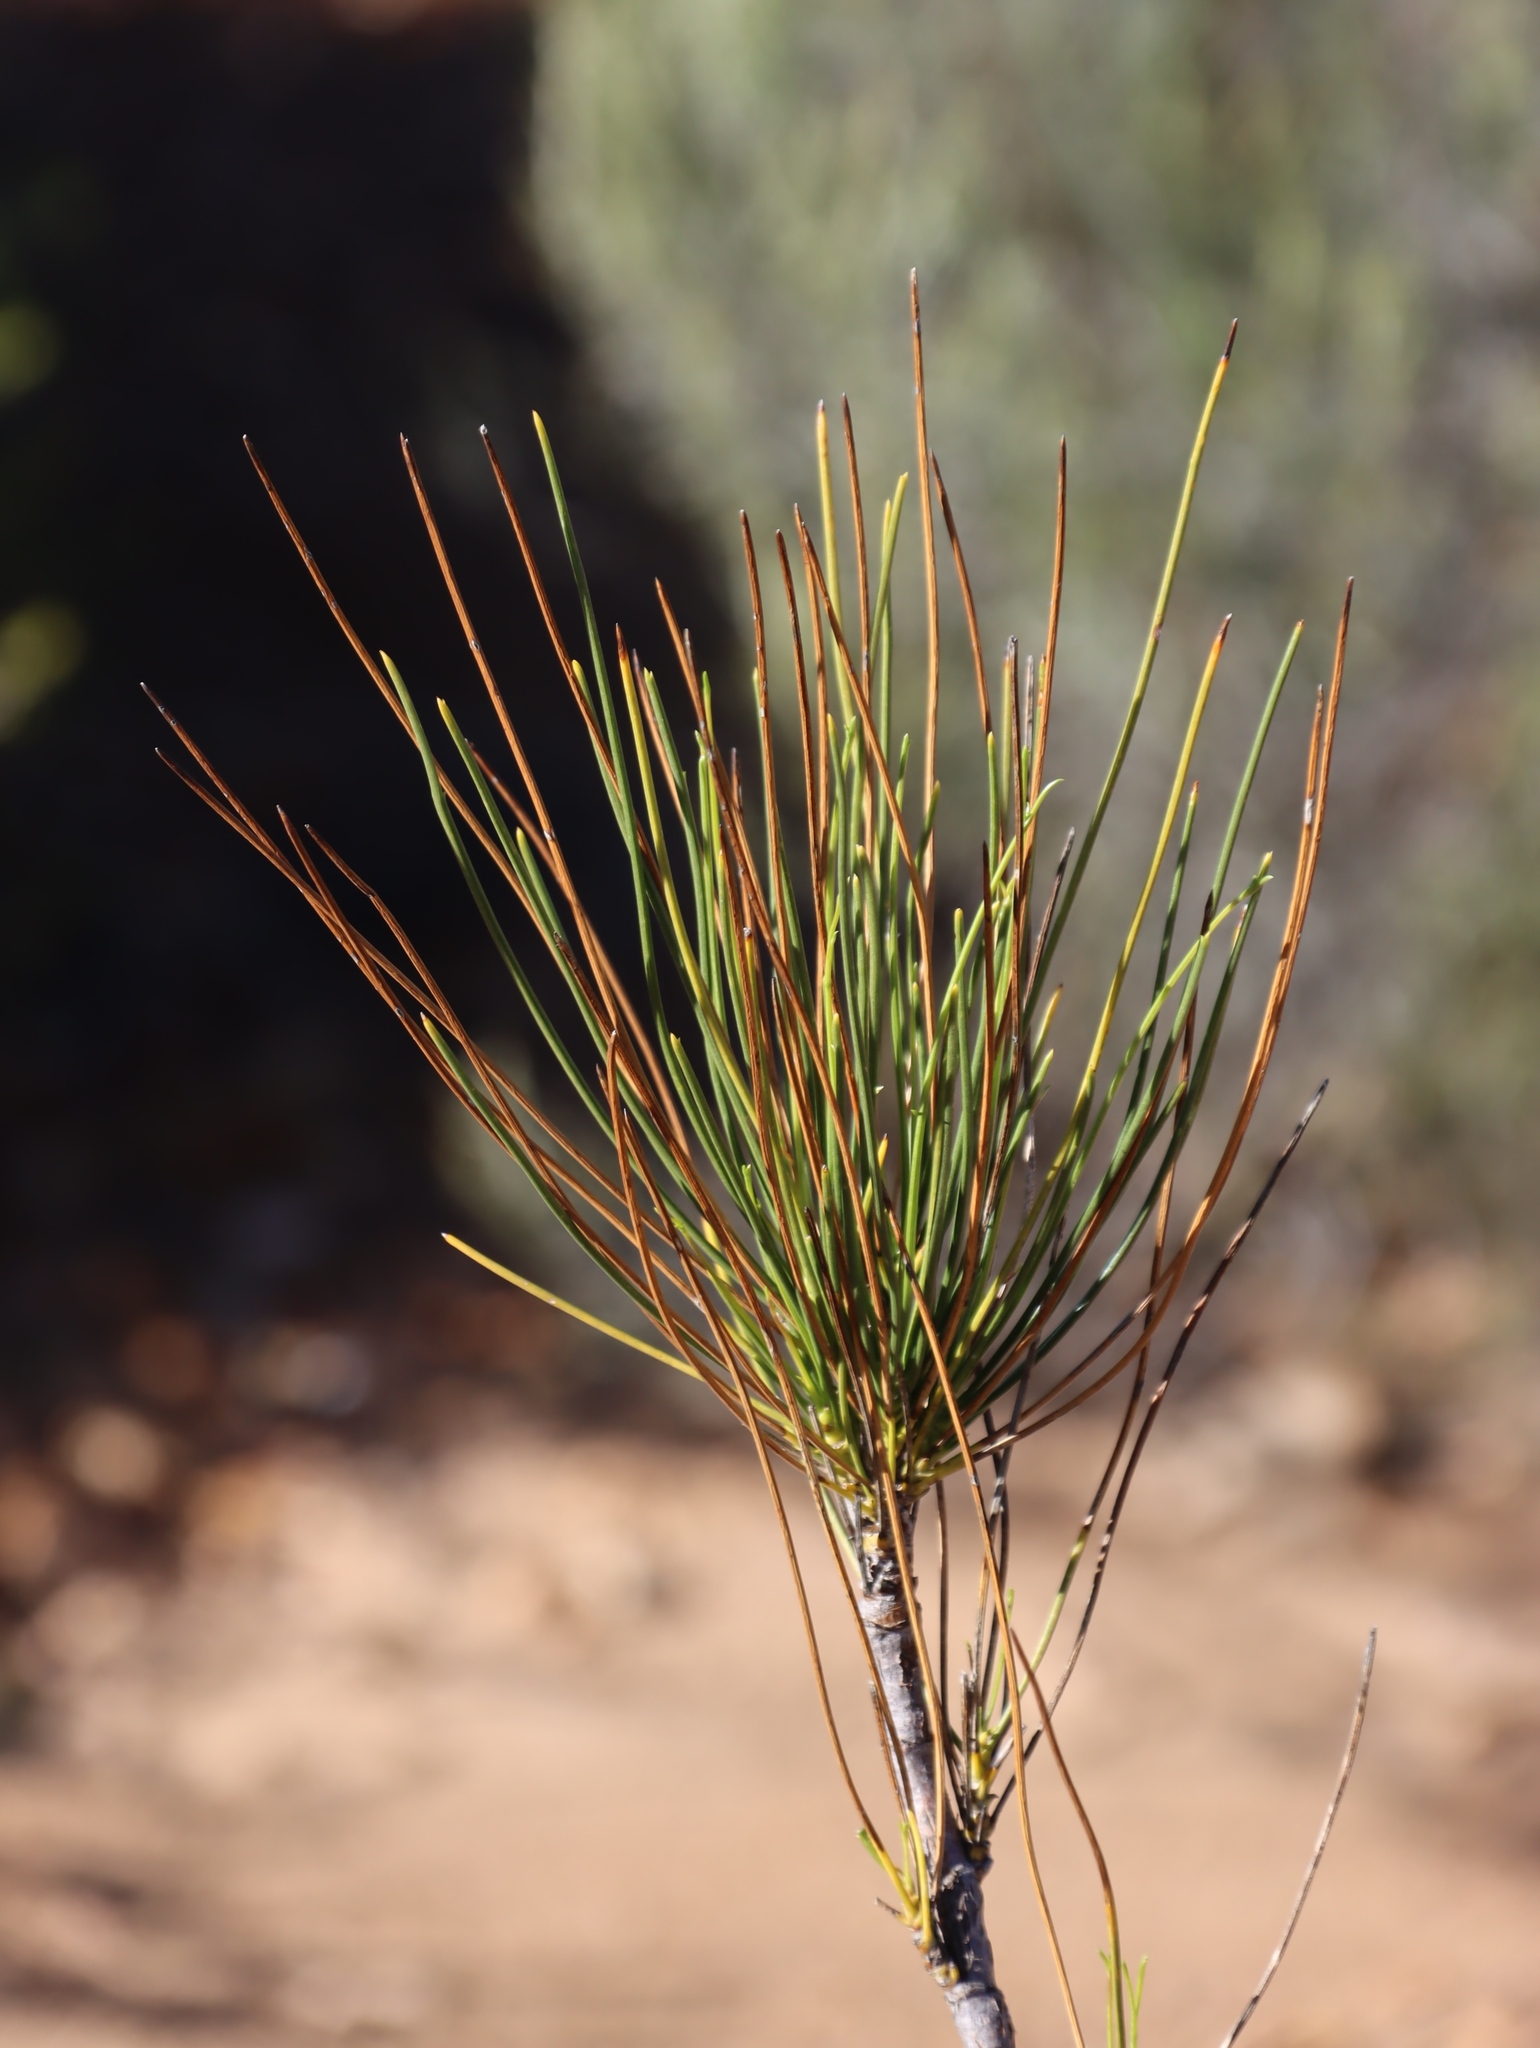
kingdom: Plantae
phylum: Tracheophyta
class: Magnoliopsida
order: Apiales
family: Apiaceae
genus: Anginon
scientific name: Anginon difforme
